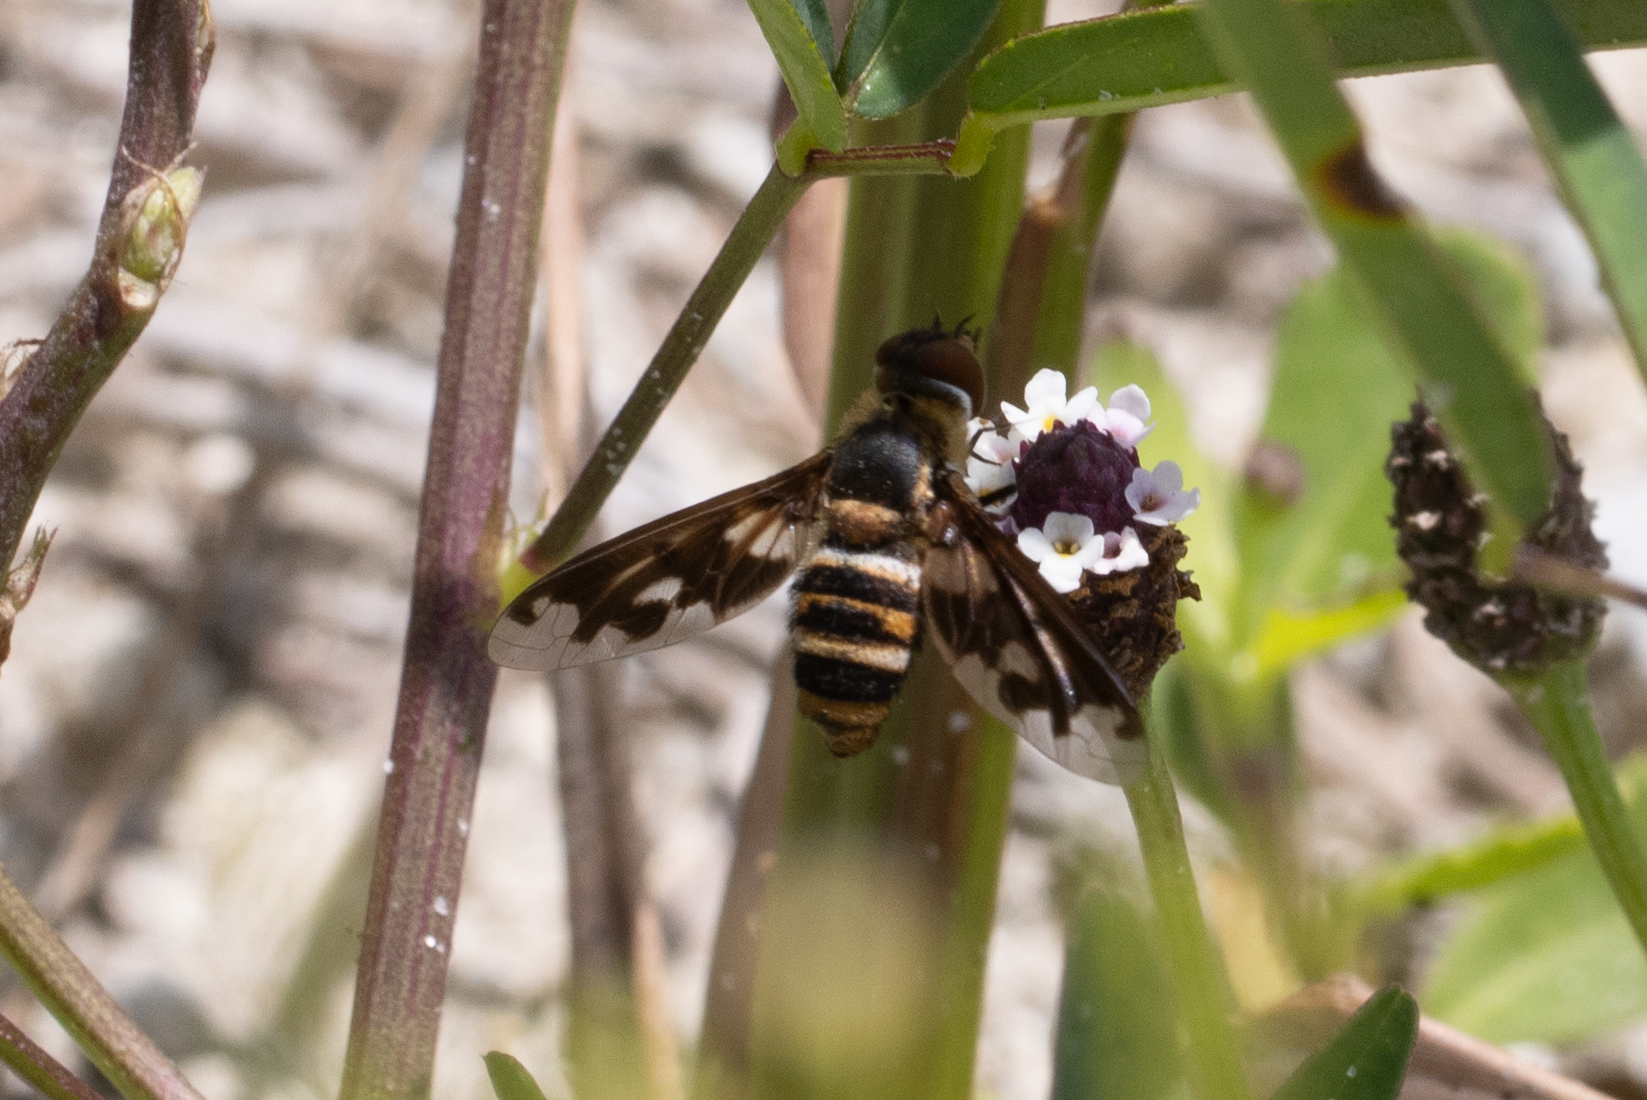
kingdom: Animalia
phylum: Arthropoda
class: Insecta
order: Diptera
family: Bombyliidae
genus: Exoprosopa
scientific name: Exoprosopa fascipennis
